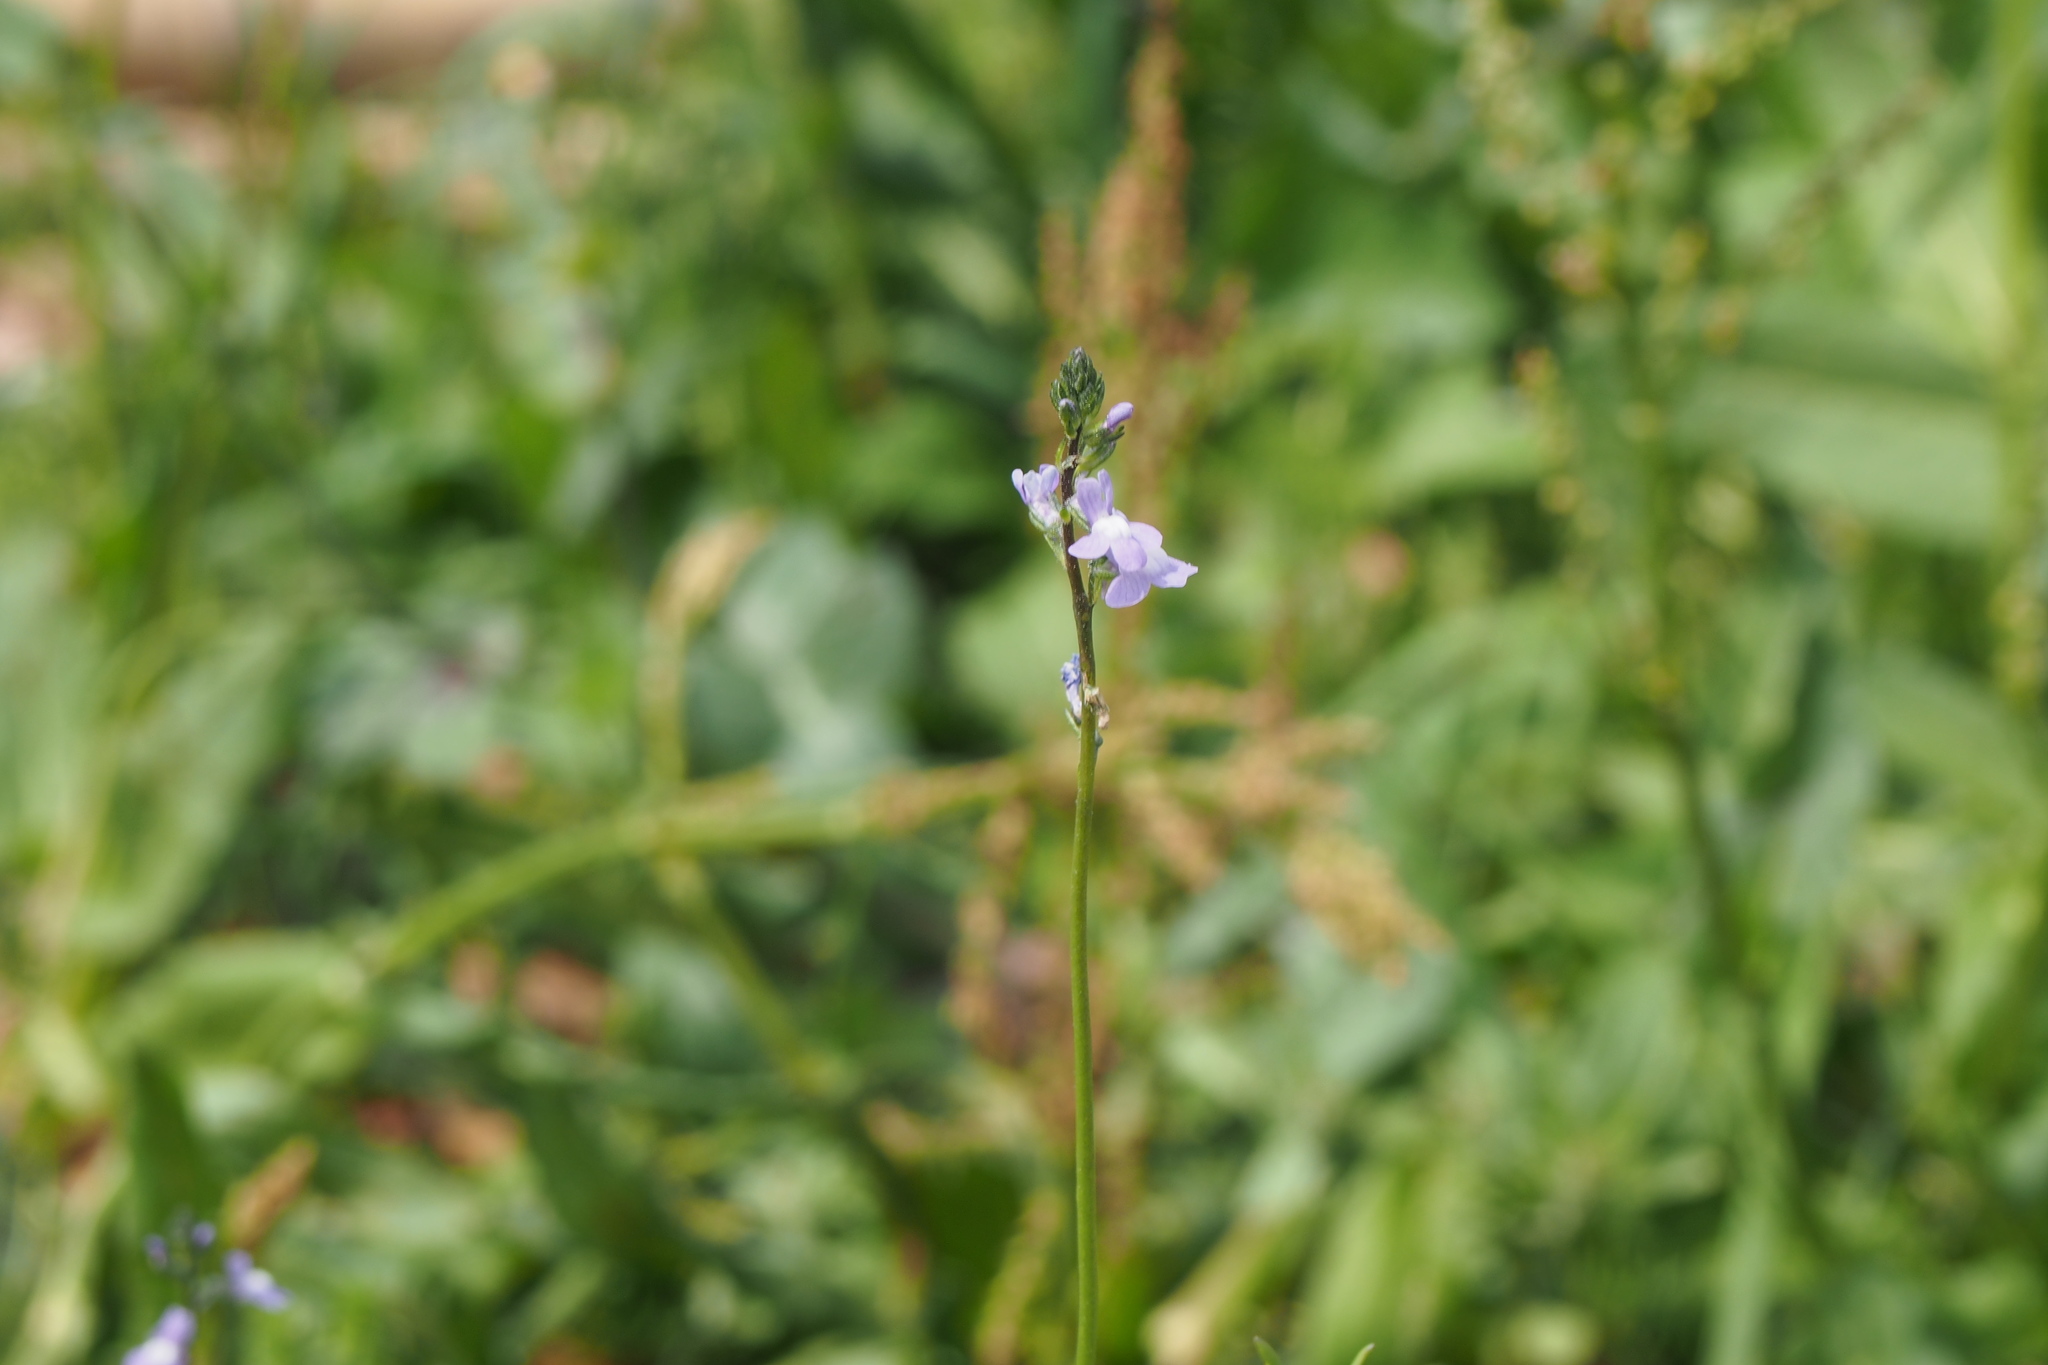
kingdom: Plantae
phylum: Tracheophyta
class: Magnoliopsida
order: Lamiales
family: Plantaginaceae
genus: Nuttallanthus
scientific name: Nuttallanthus canadensis
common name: Blue toadflax
